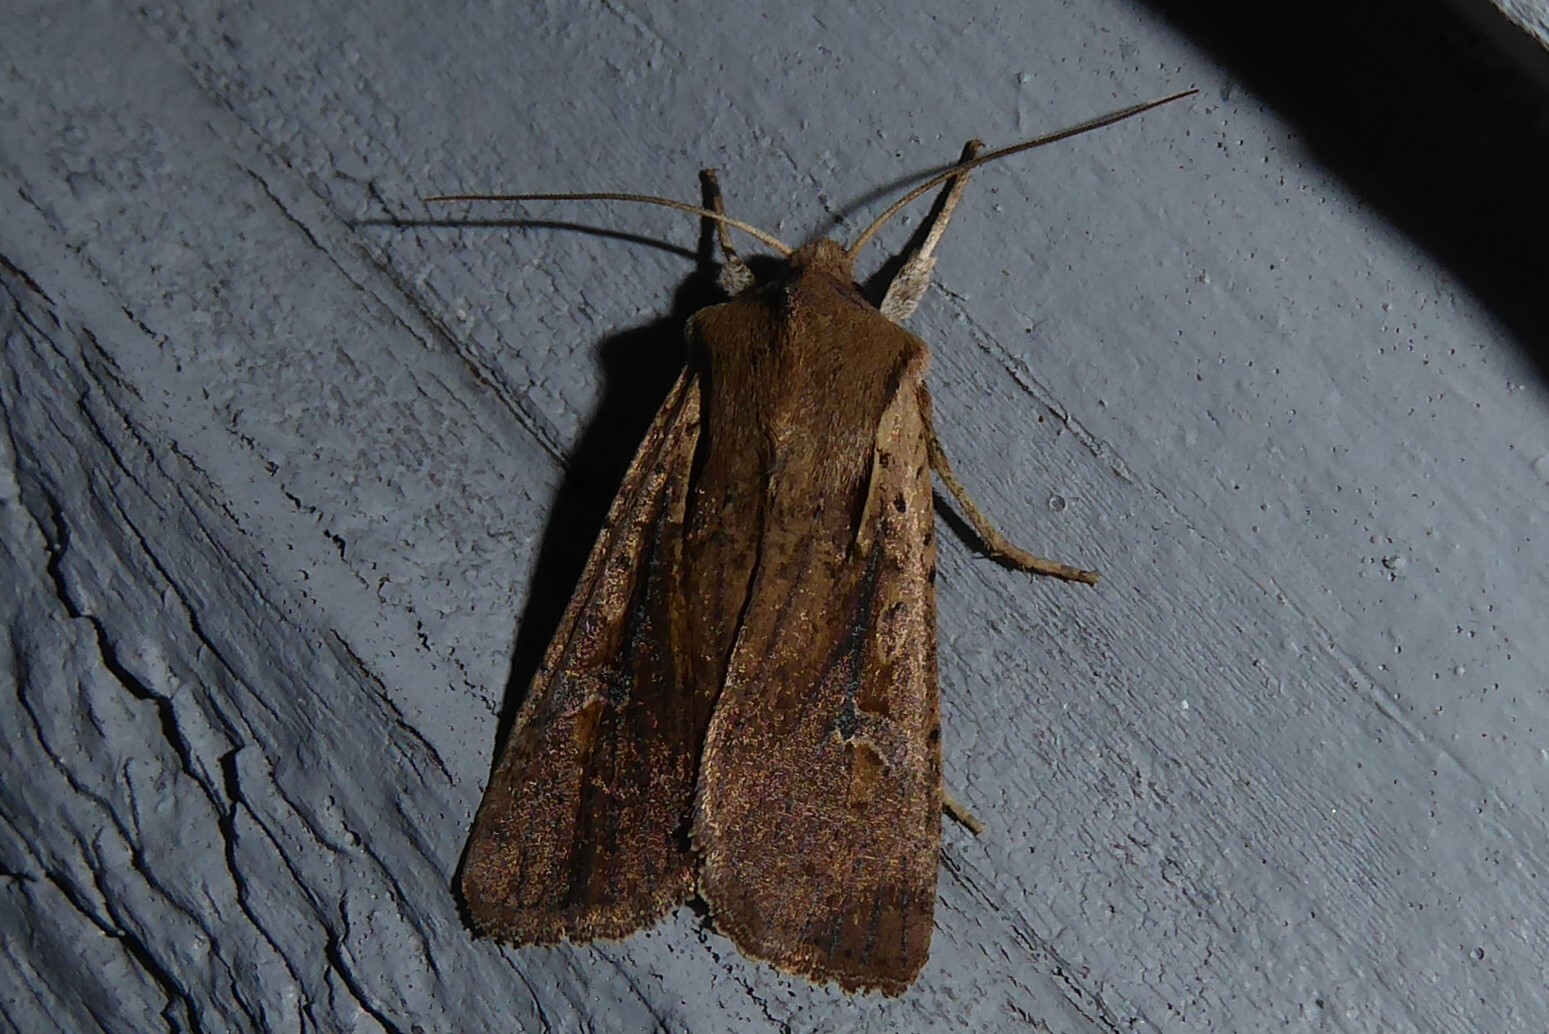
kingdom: Animalia
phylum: Arthropoda
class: Insecta
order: Lepidoptera
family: Noctuidae
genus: Ichneutica
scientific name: Ichneutica atristriga
